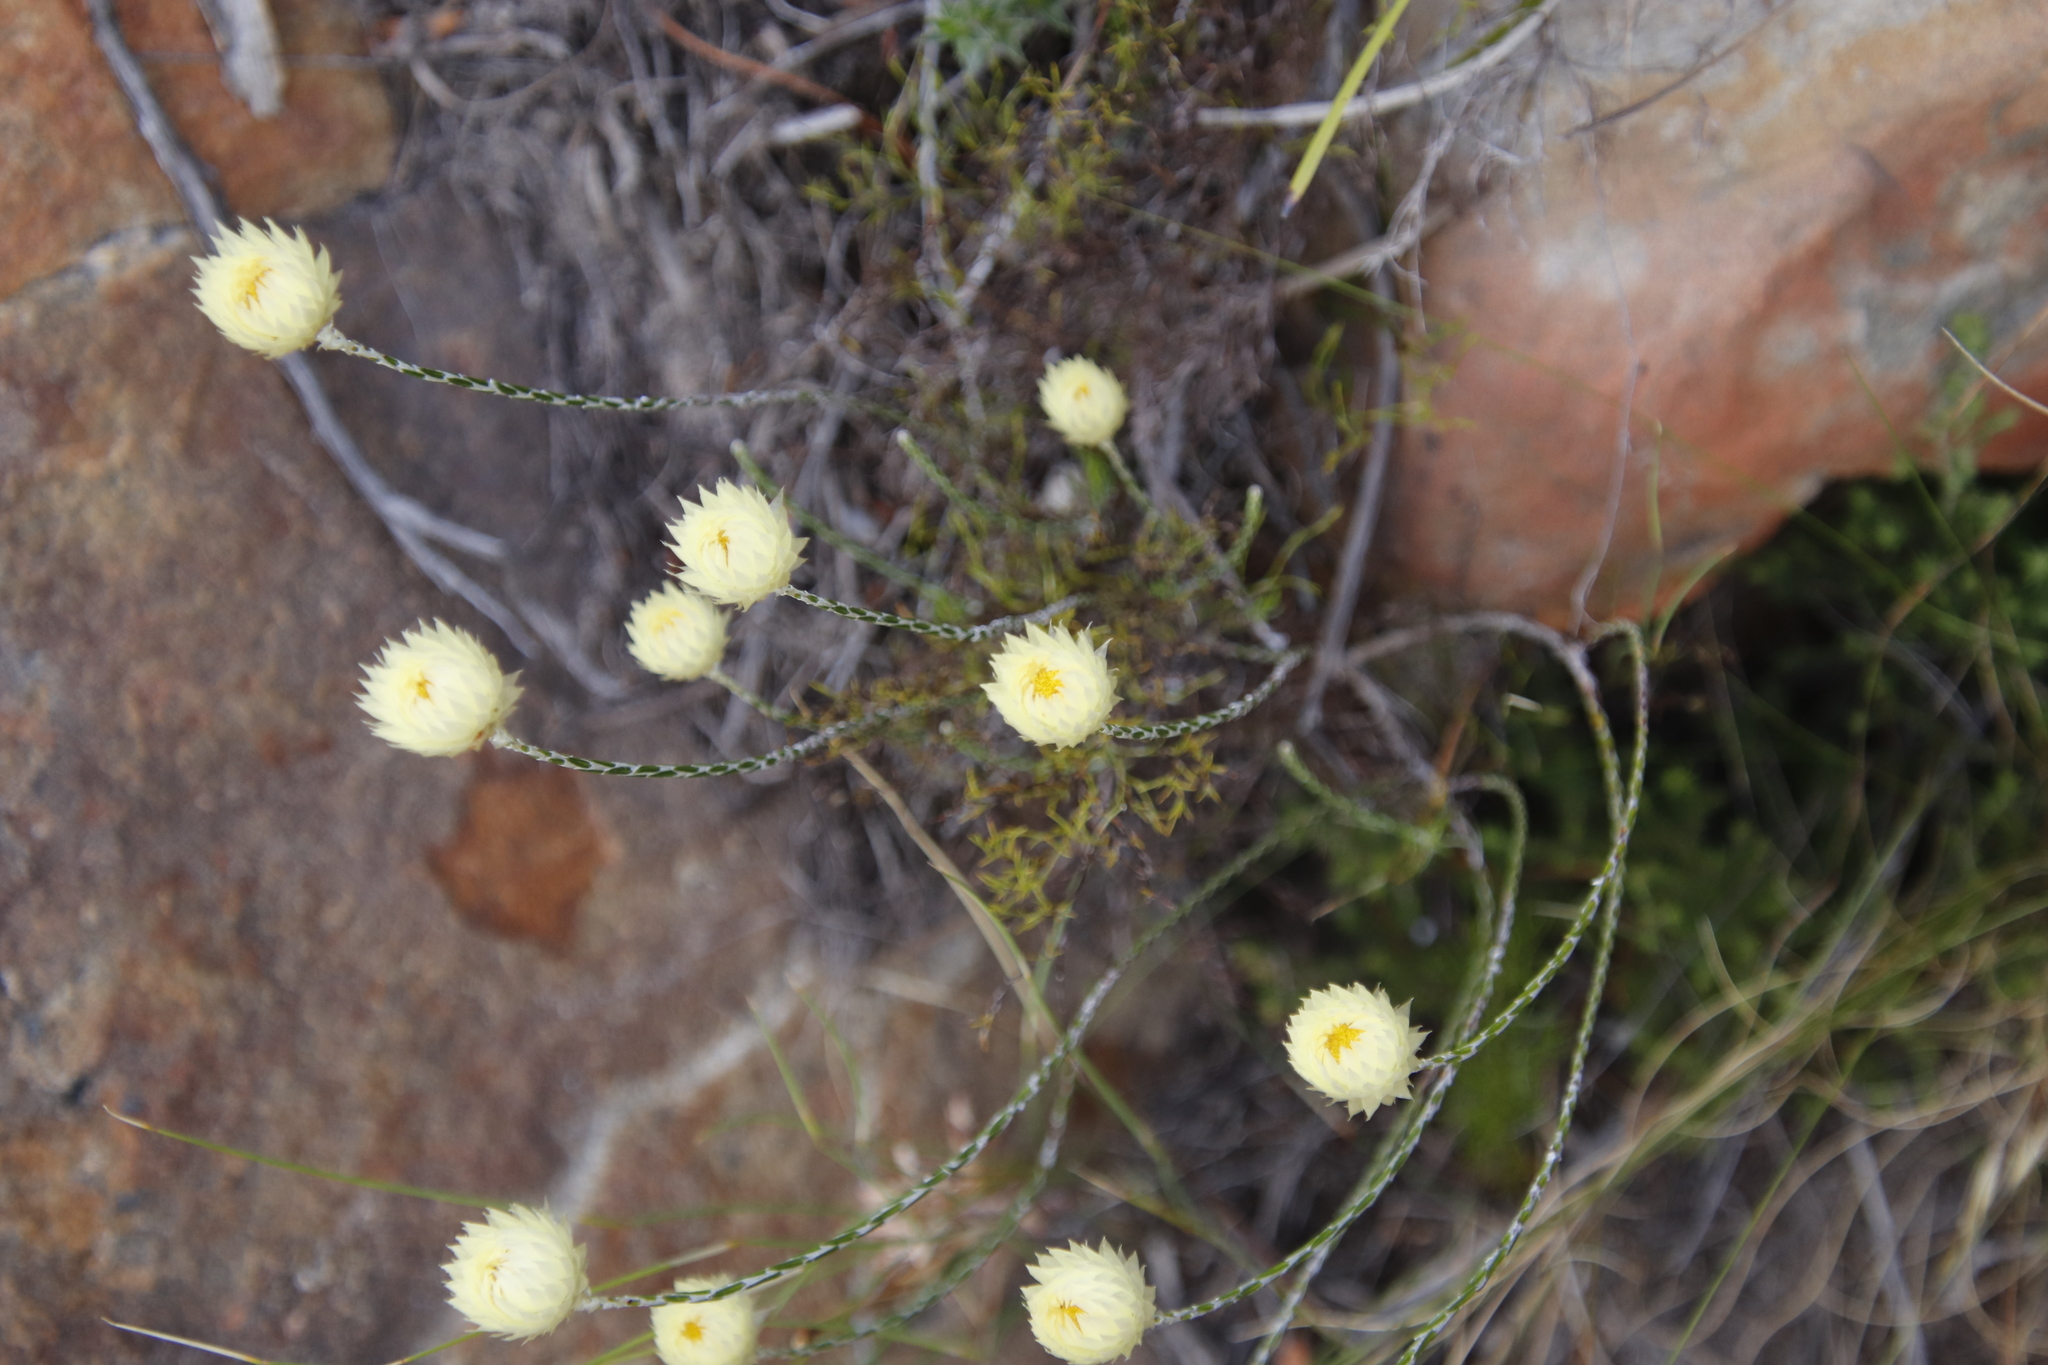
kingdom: Plantae
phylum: Tracheophyta
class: Magnoliopsida
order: Asterales
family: Asteraceae
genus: Edmondia
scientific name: Edmondia sesamoides
